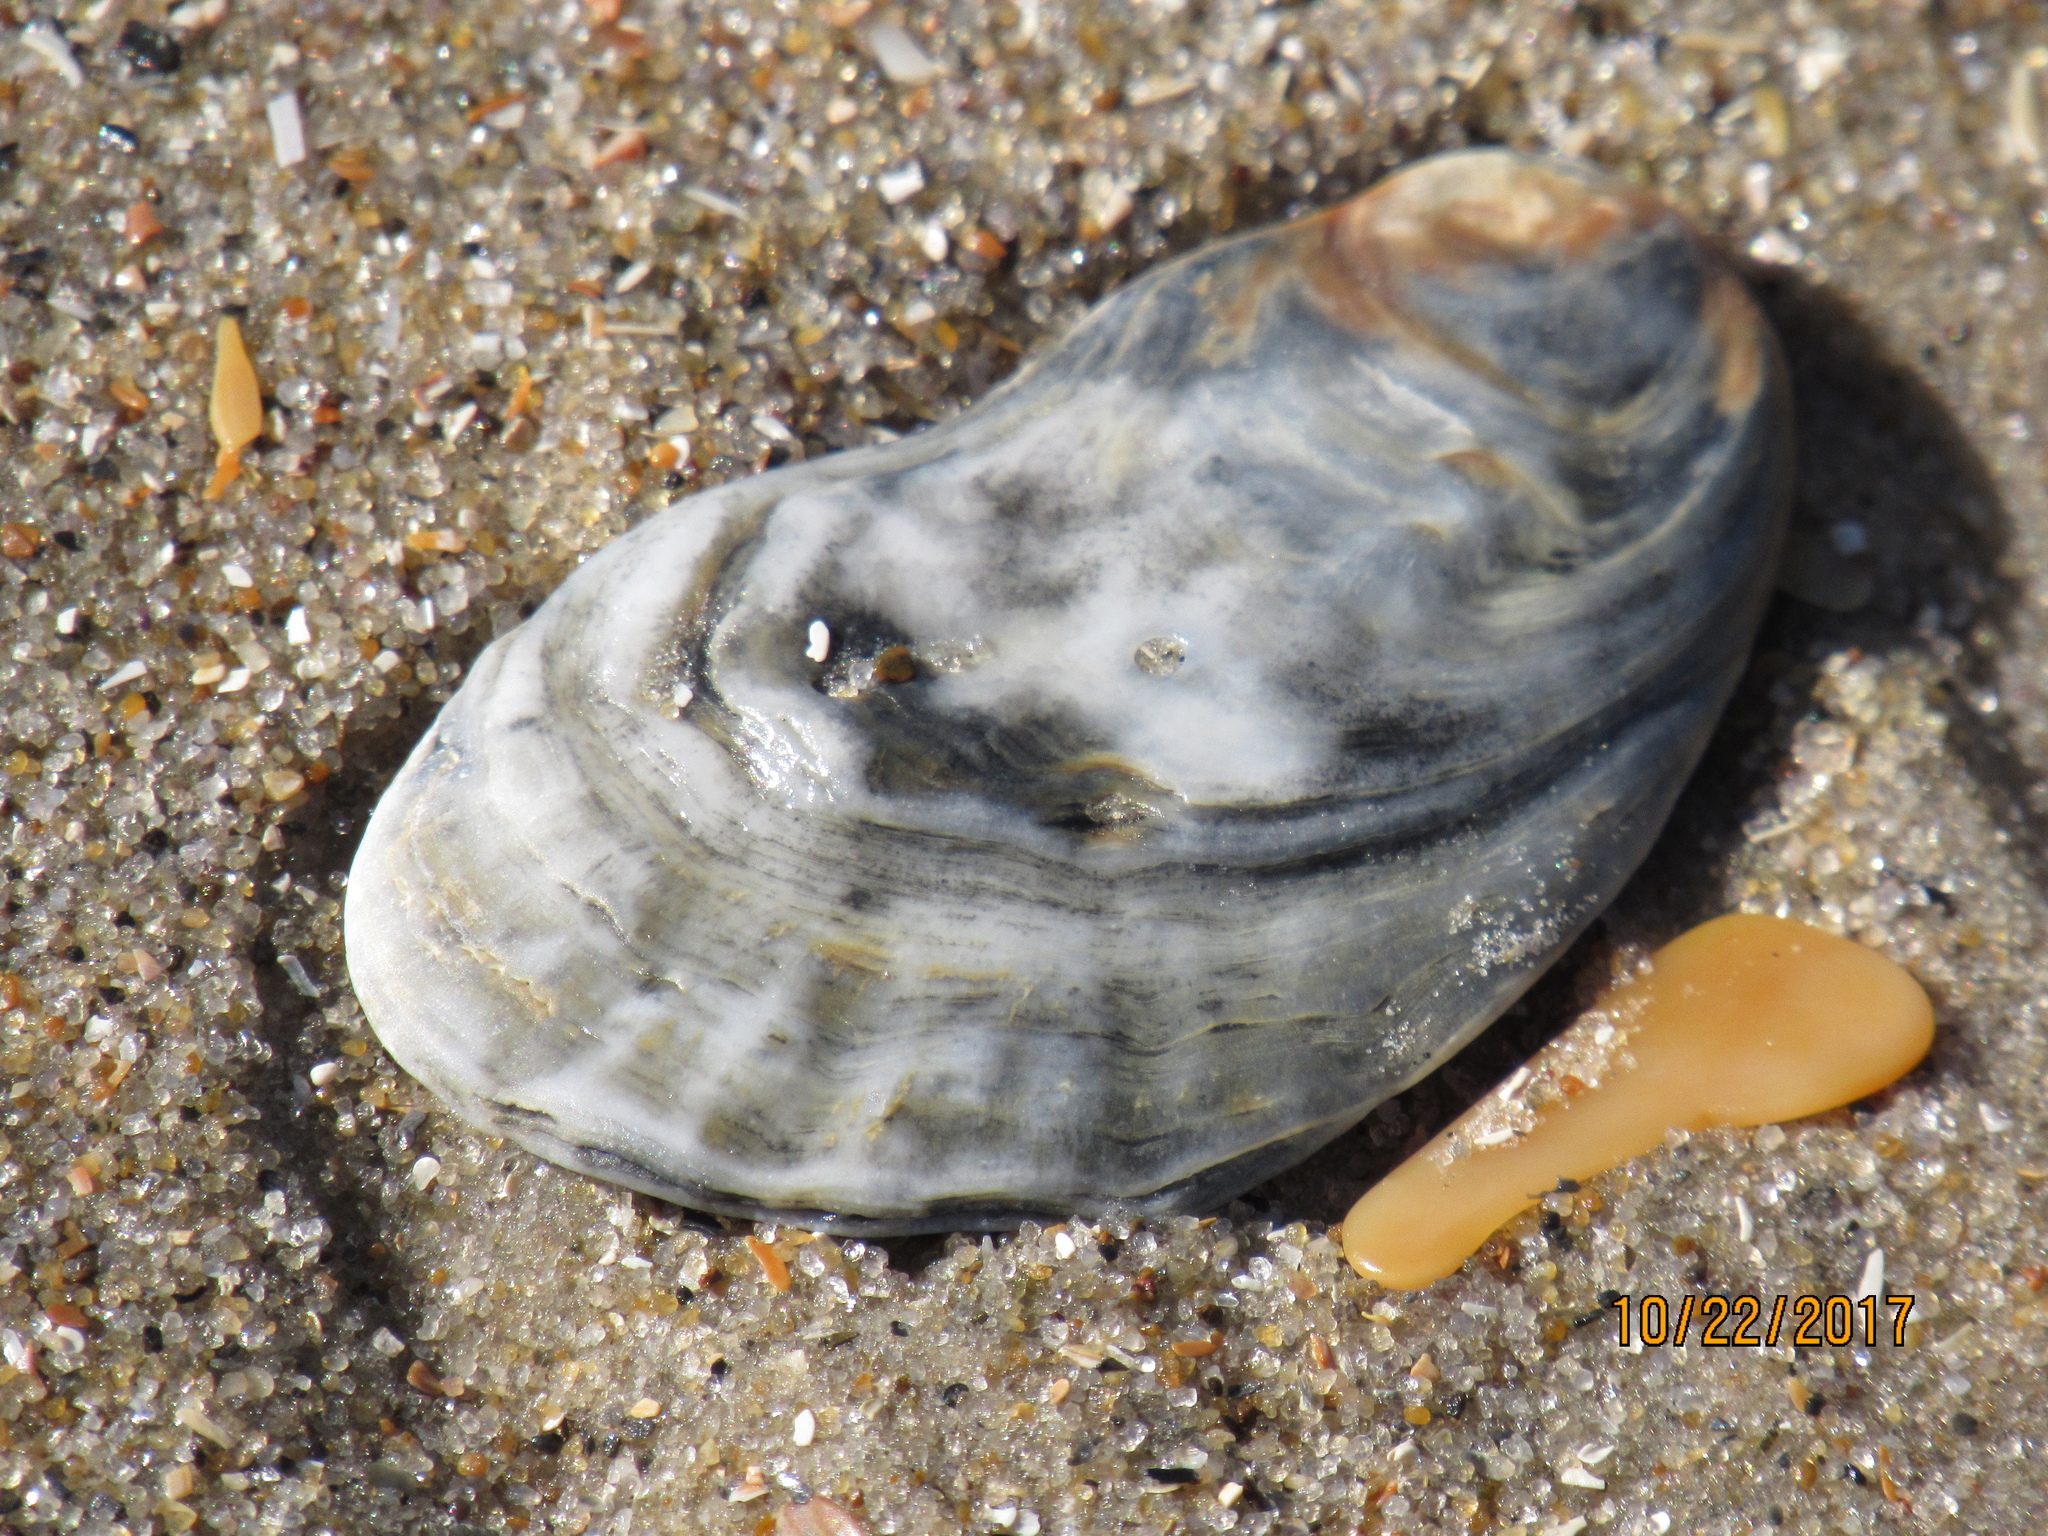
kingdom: Animalia
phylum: Mollusca
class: Bivalvia
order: Ostreida
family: Ostreidae
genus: Crassostrea
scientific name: Crassostrea virginica
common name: American oyster
